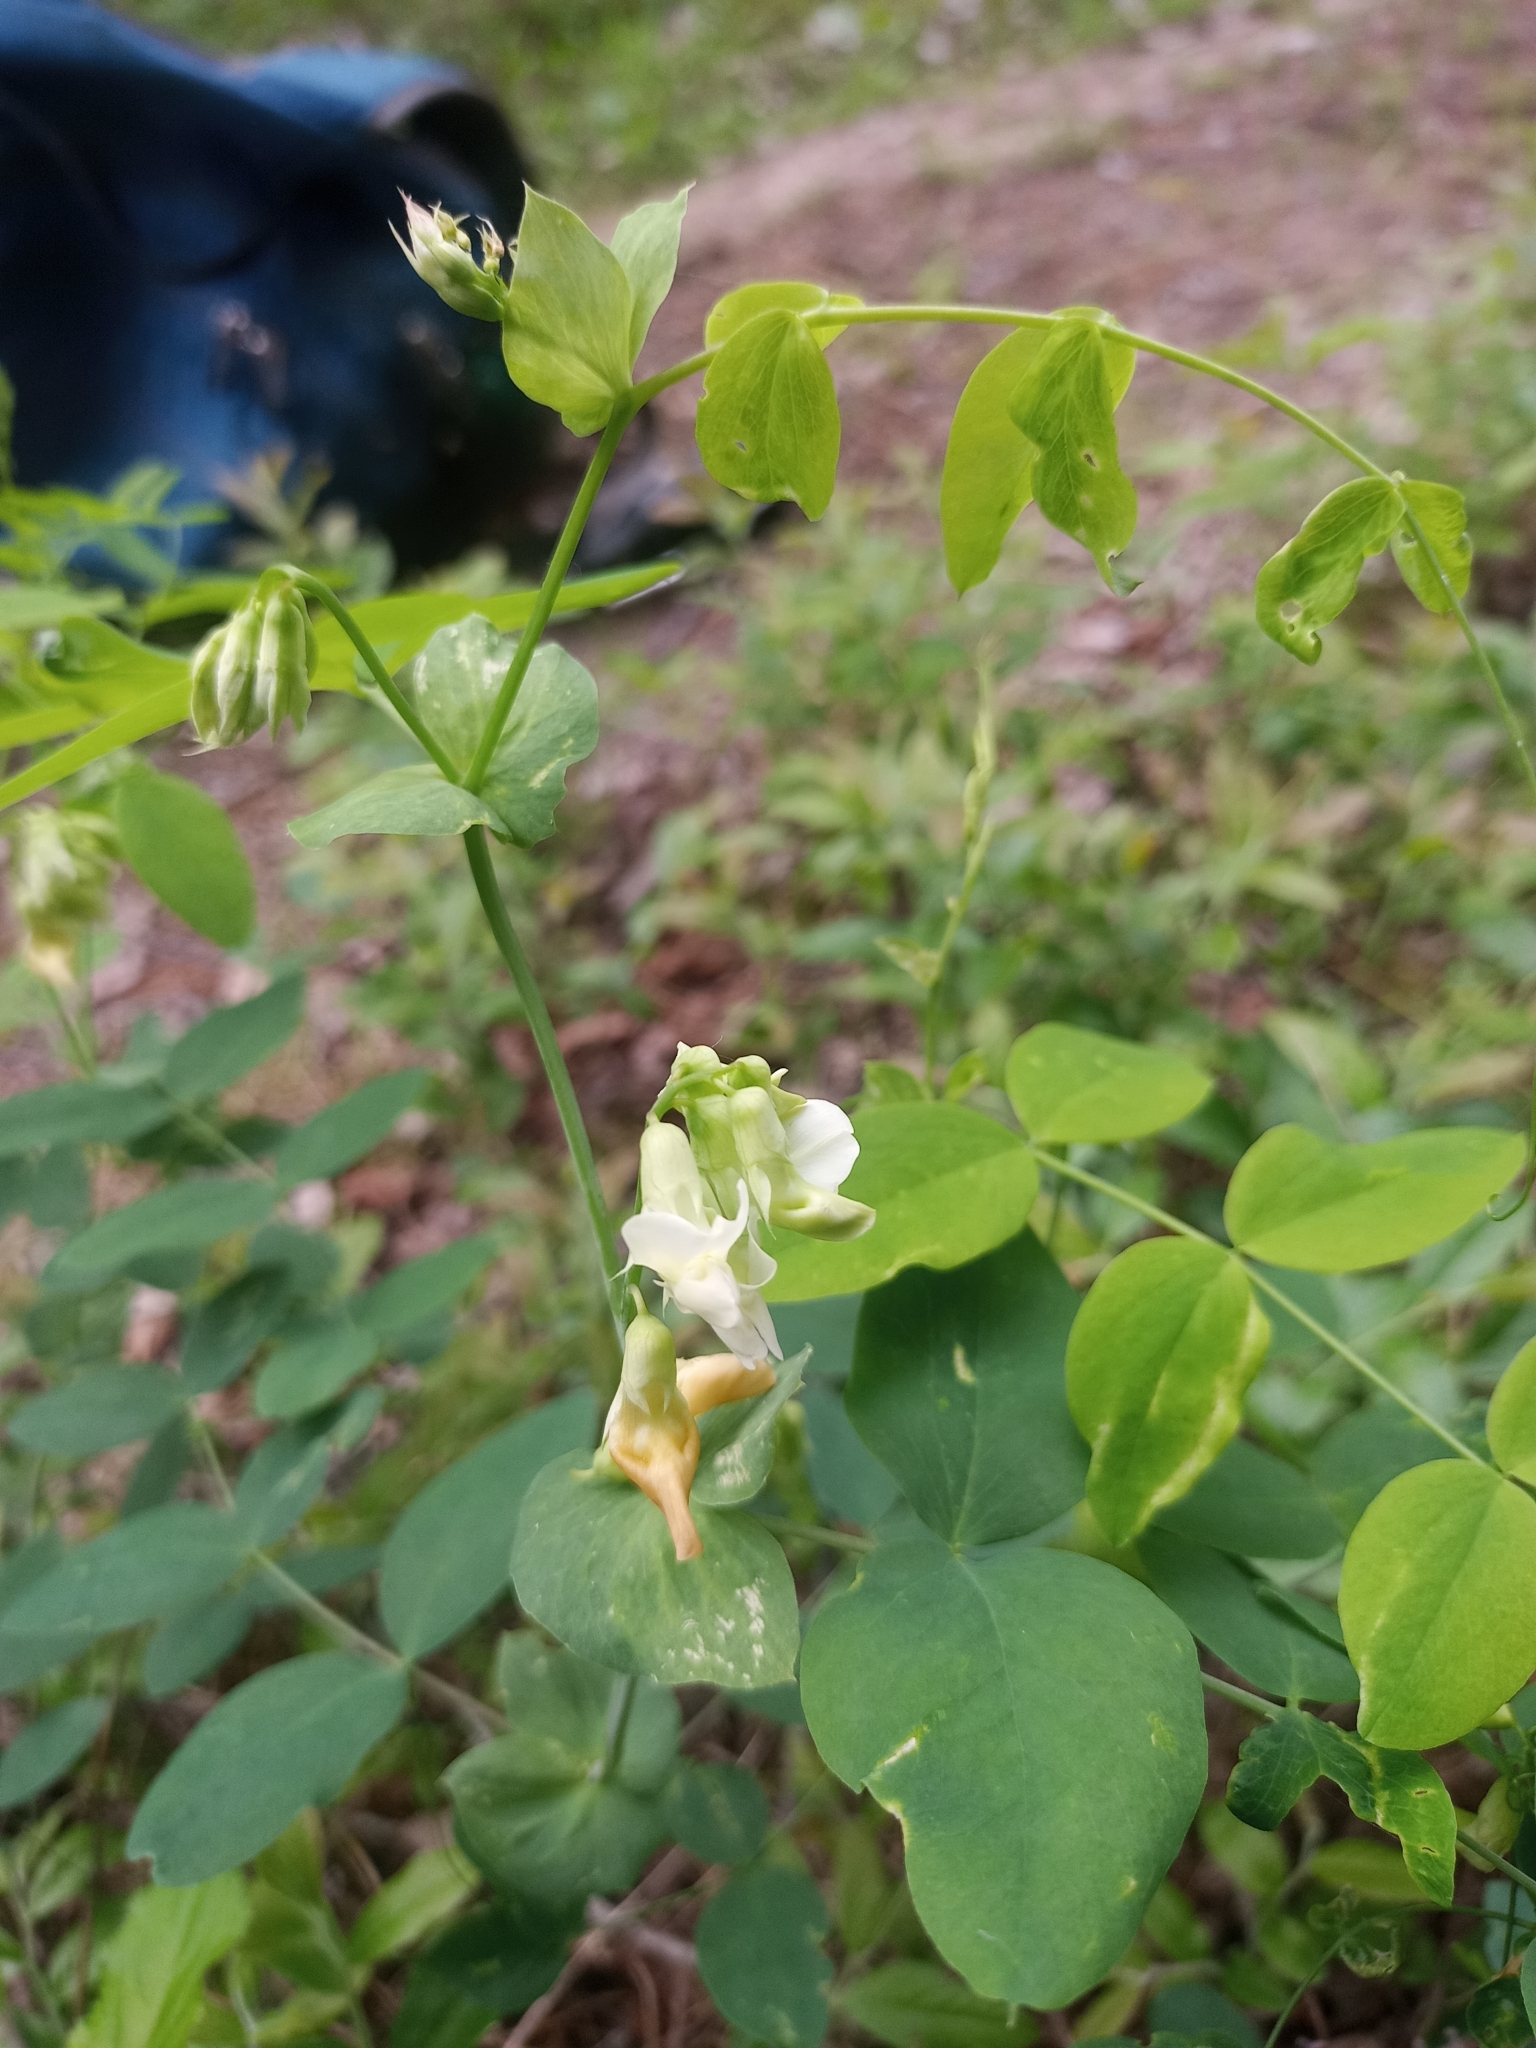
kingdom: Plantae
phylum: Tracheophyta
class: Magnoliopsida
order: Fabales
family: Fabaceae
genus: Lathyrus
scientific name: Lathyrus ochroleucus
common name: Pale vetchling
